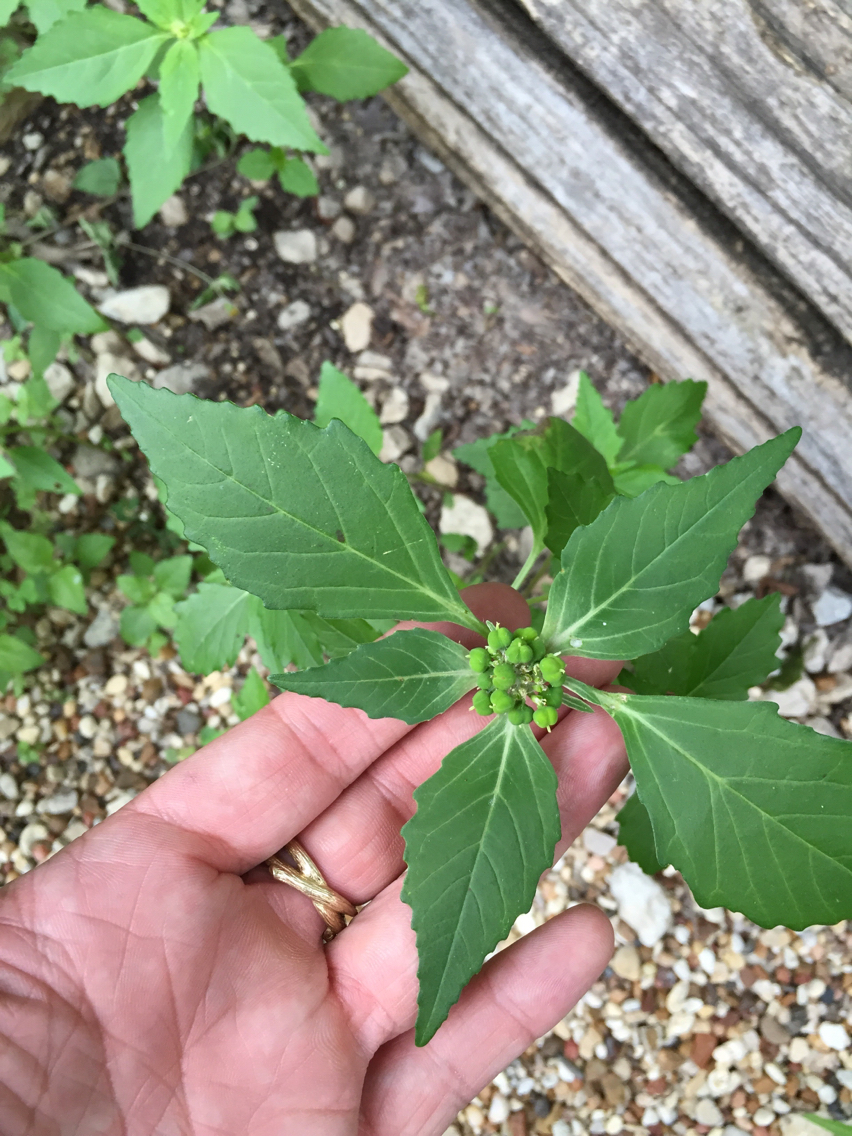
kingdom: Plantae
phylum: Tracheophyta
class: Magnoliopsida
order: Malpighiales
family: Euphorbiaceae
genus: Euphorbia
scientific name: Euphorbia dentata
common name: Dentate spurge
